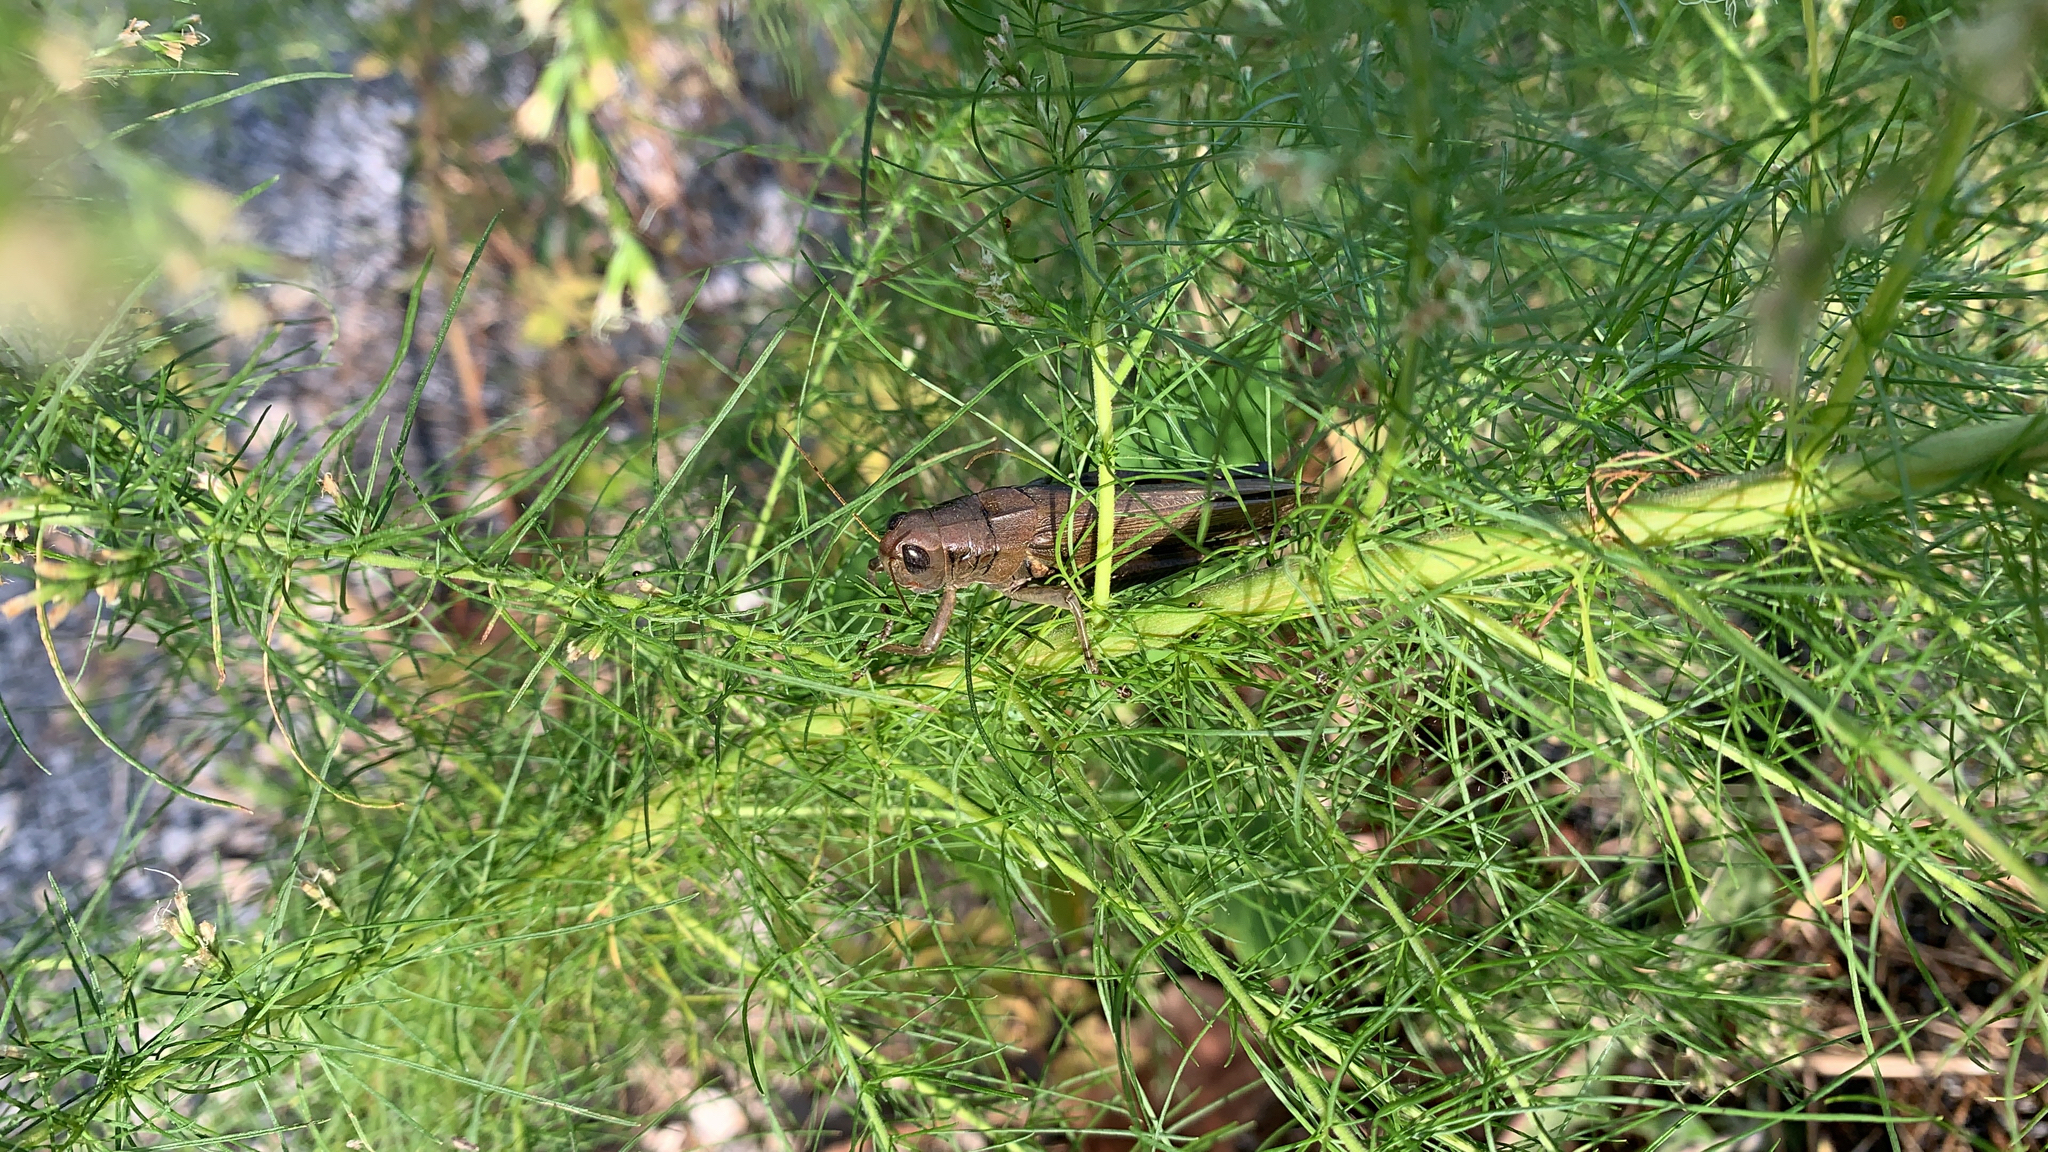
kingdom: Animalia
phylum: Arthropoda
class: Insecta
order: Orthoptera
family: Acrididae
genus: Melanoplus
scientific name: Melanoplus differentialis
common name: Differential grasshopper
